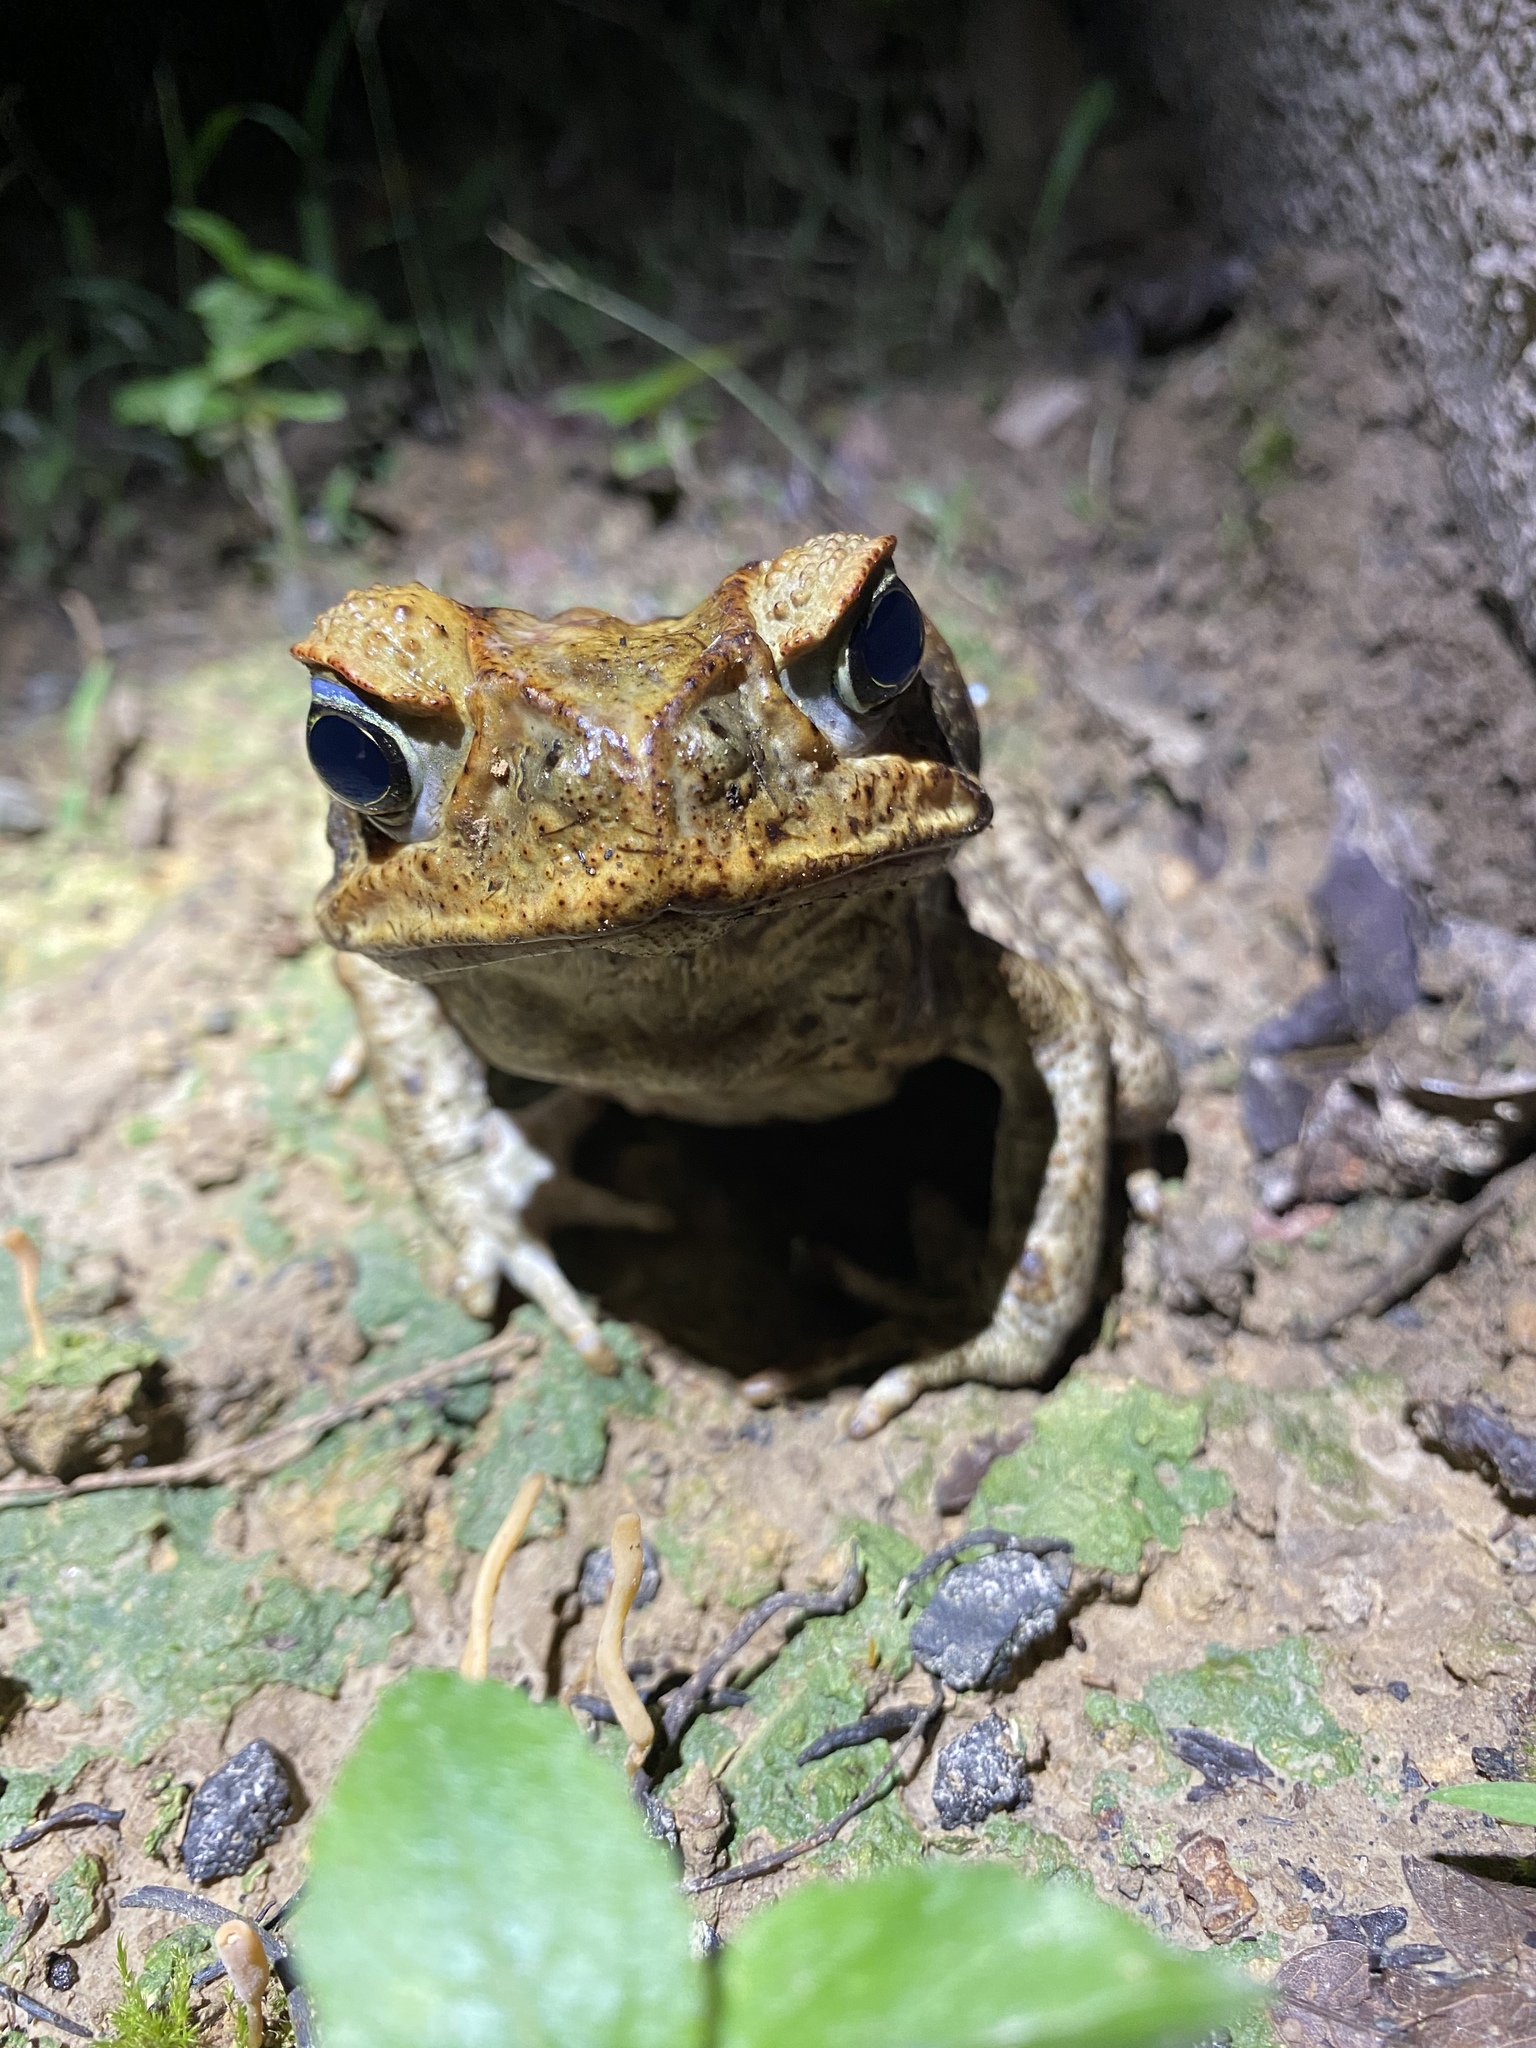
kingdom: Animalia
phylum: Chordata
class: Amphibia
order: Anura
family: Bufonidae
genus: Rhinella
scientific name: Rhinella marina
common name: Cane toad
